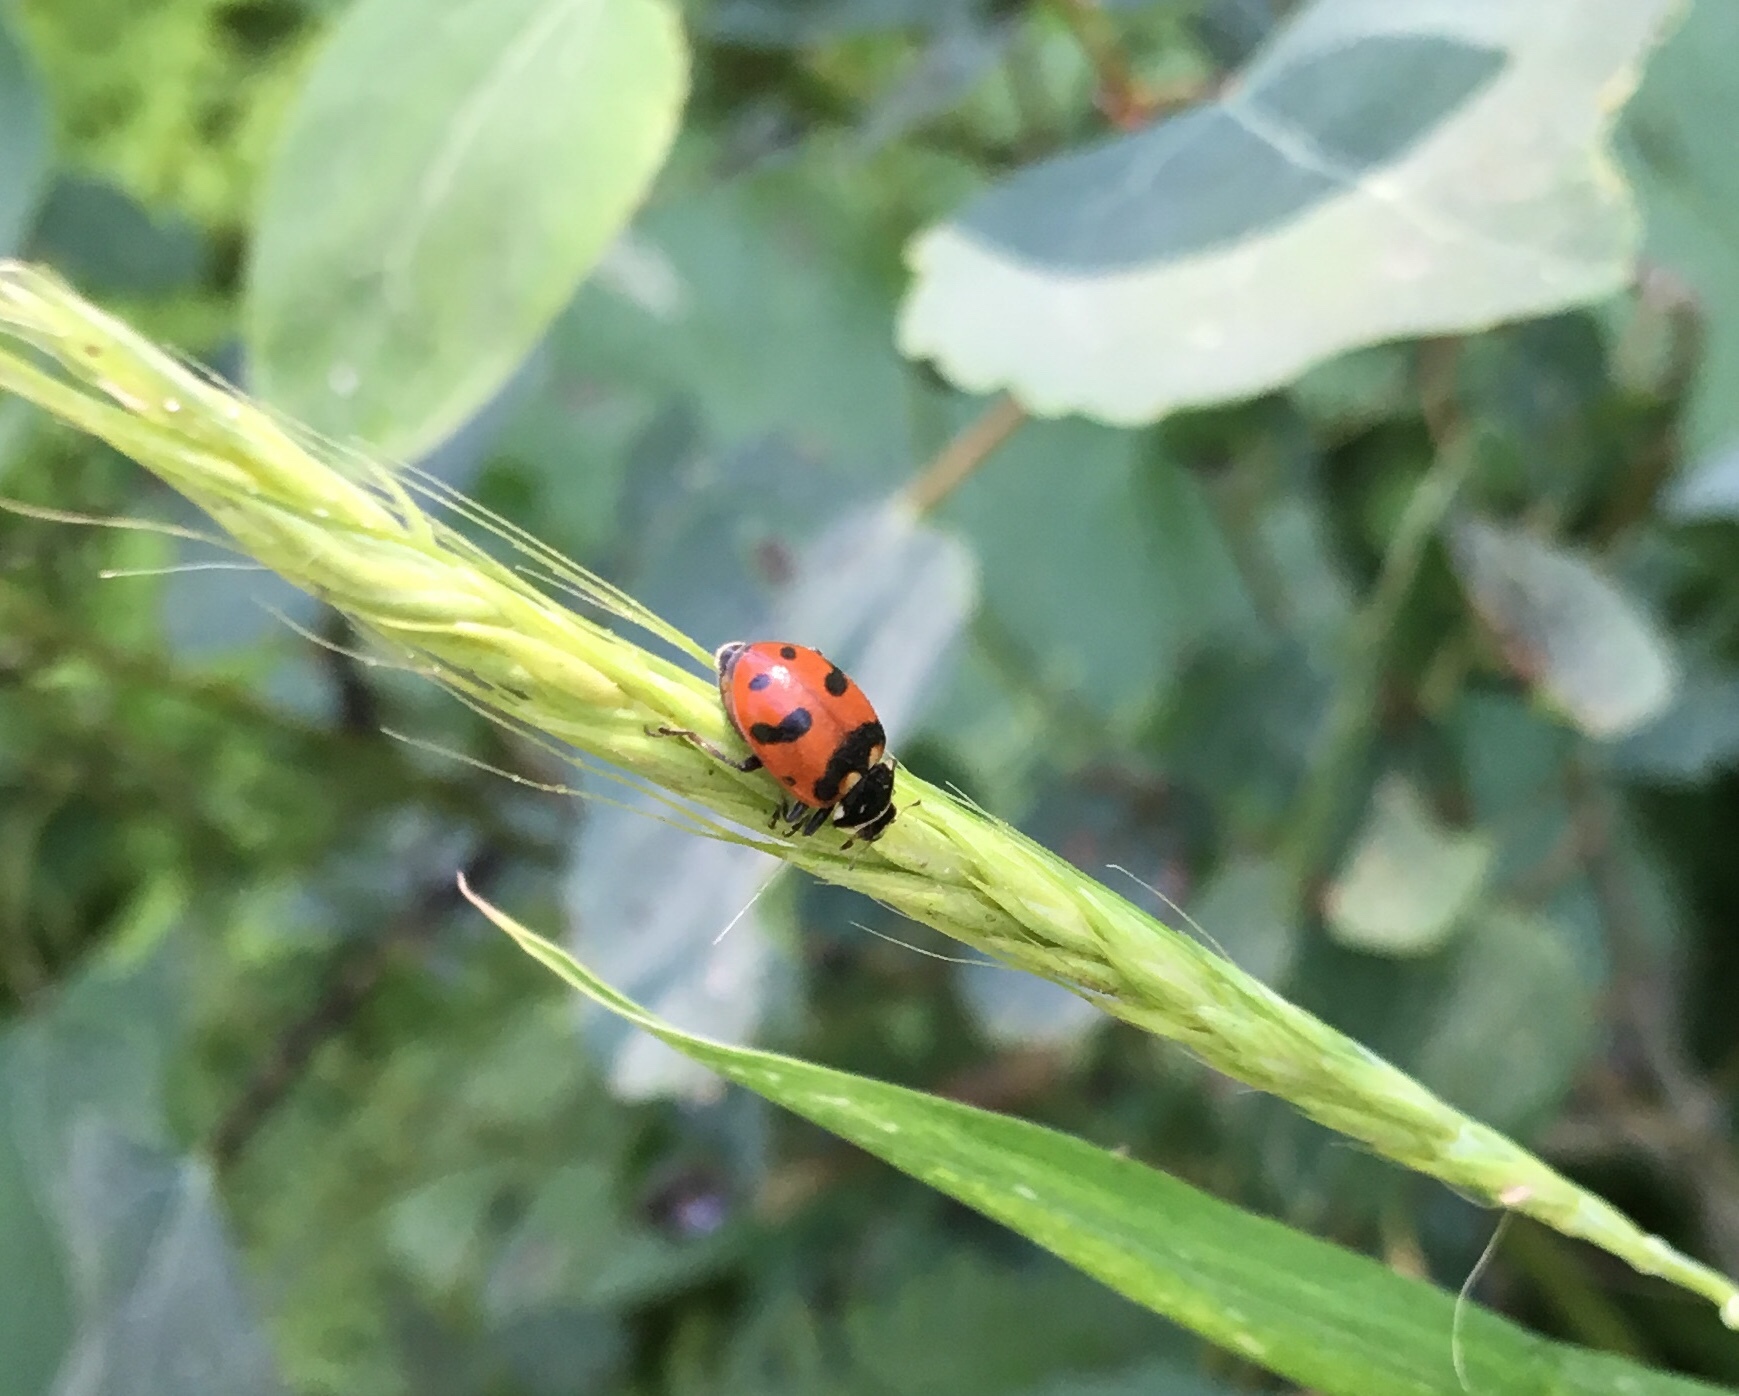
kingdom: Animalia
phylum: Arthropoda
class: Insecta
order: Coleoptera
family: Coccinellidae
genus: Hippodamia
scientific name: Hippodamia caseyi
